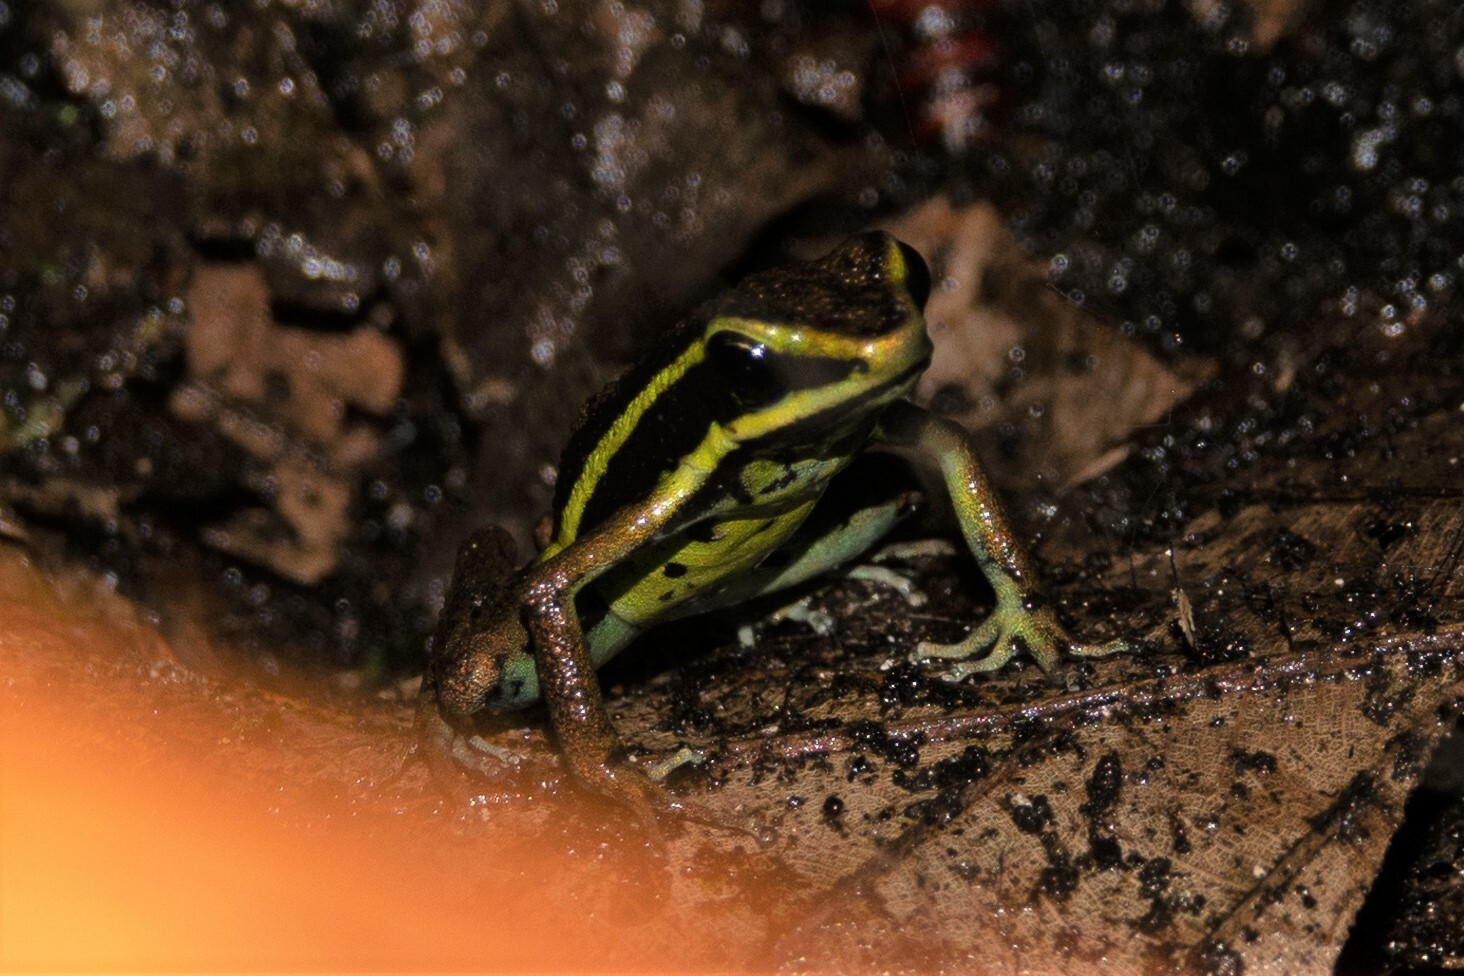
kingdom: Animalia
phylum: Chordata
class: Amphibia
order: Anura
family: Dendrobatidae
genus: Ameerega
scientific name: Ameerega petersi
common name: Peru poison frog
